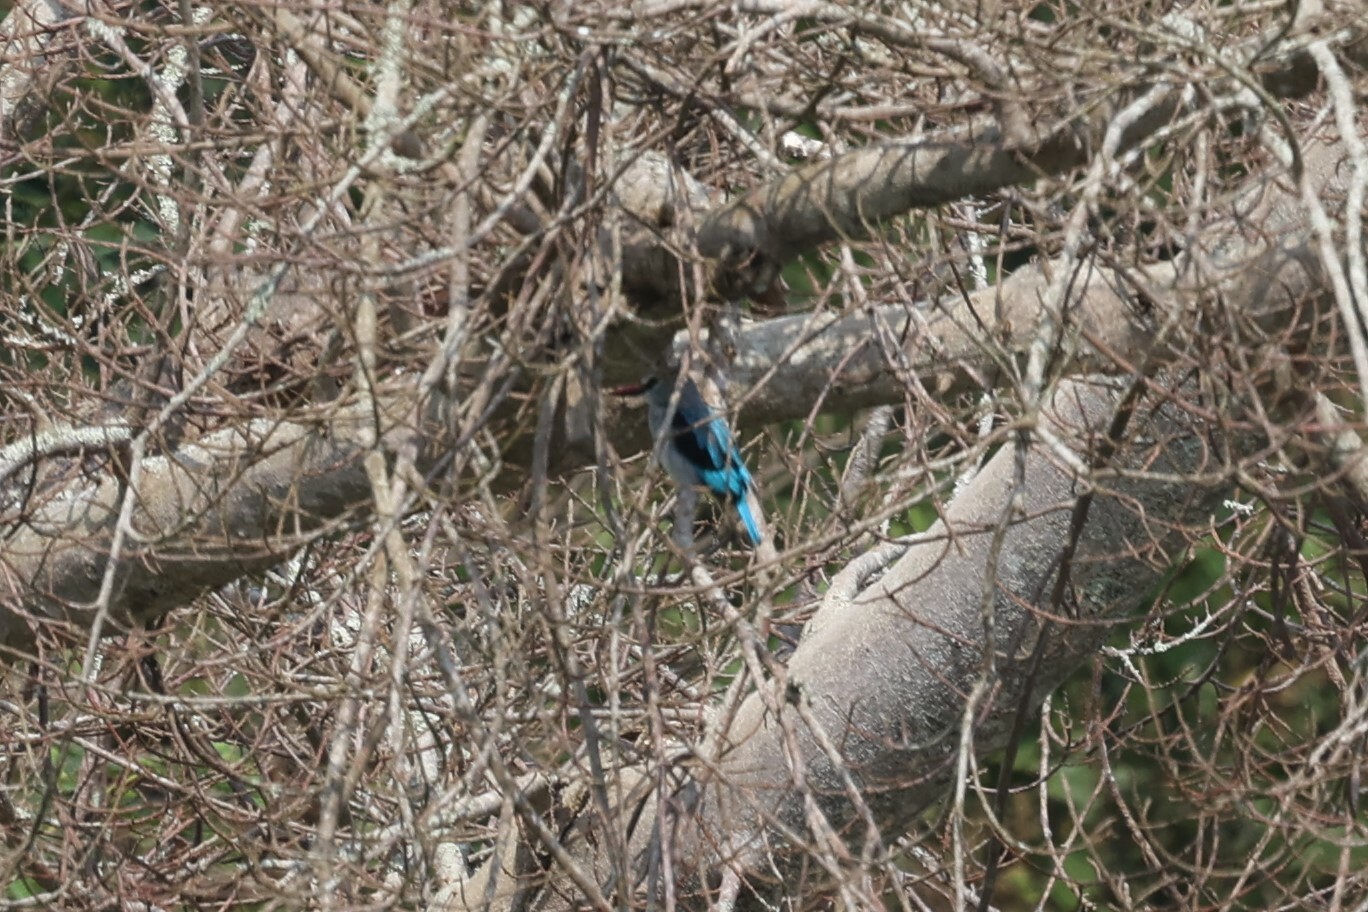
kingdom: Animalia
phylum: Chordata
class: Aves
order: Coraciiformes
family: Alcedinidae
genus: Halcyon
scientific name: Halcyon senegalensis
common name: Woodland kingfisher
